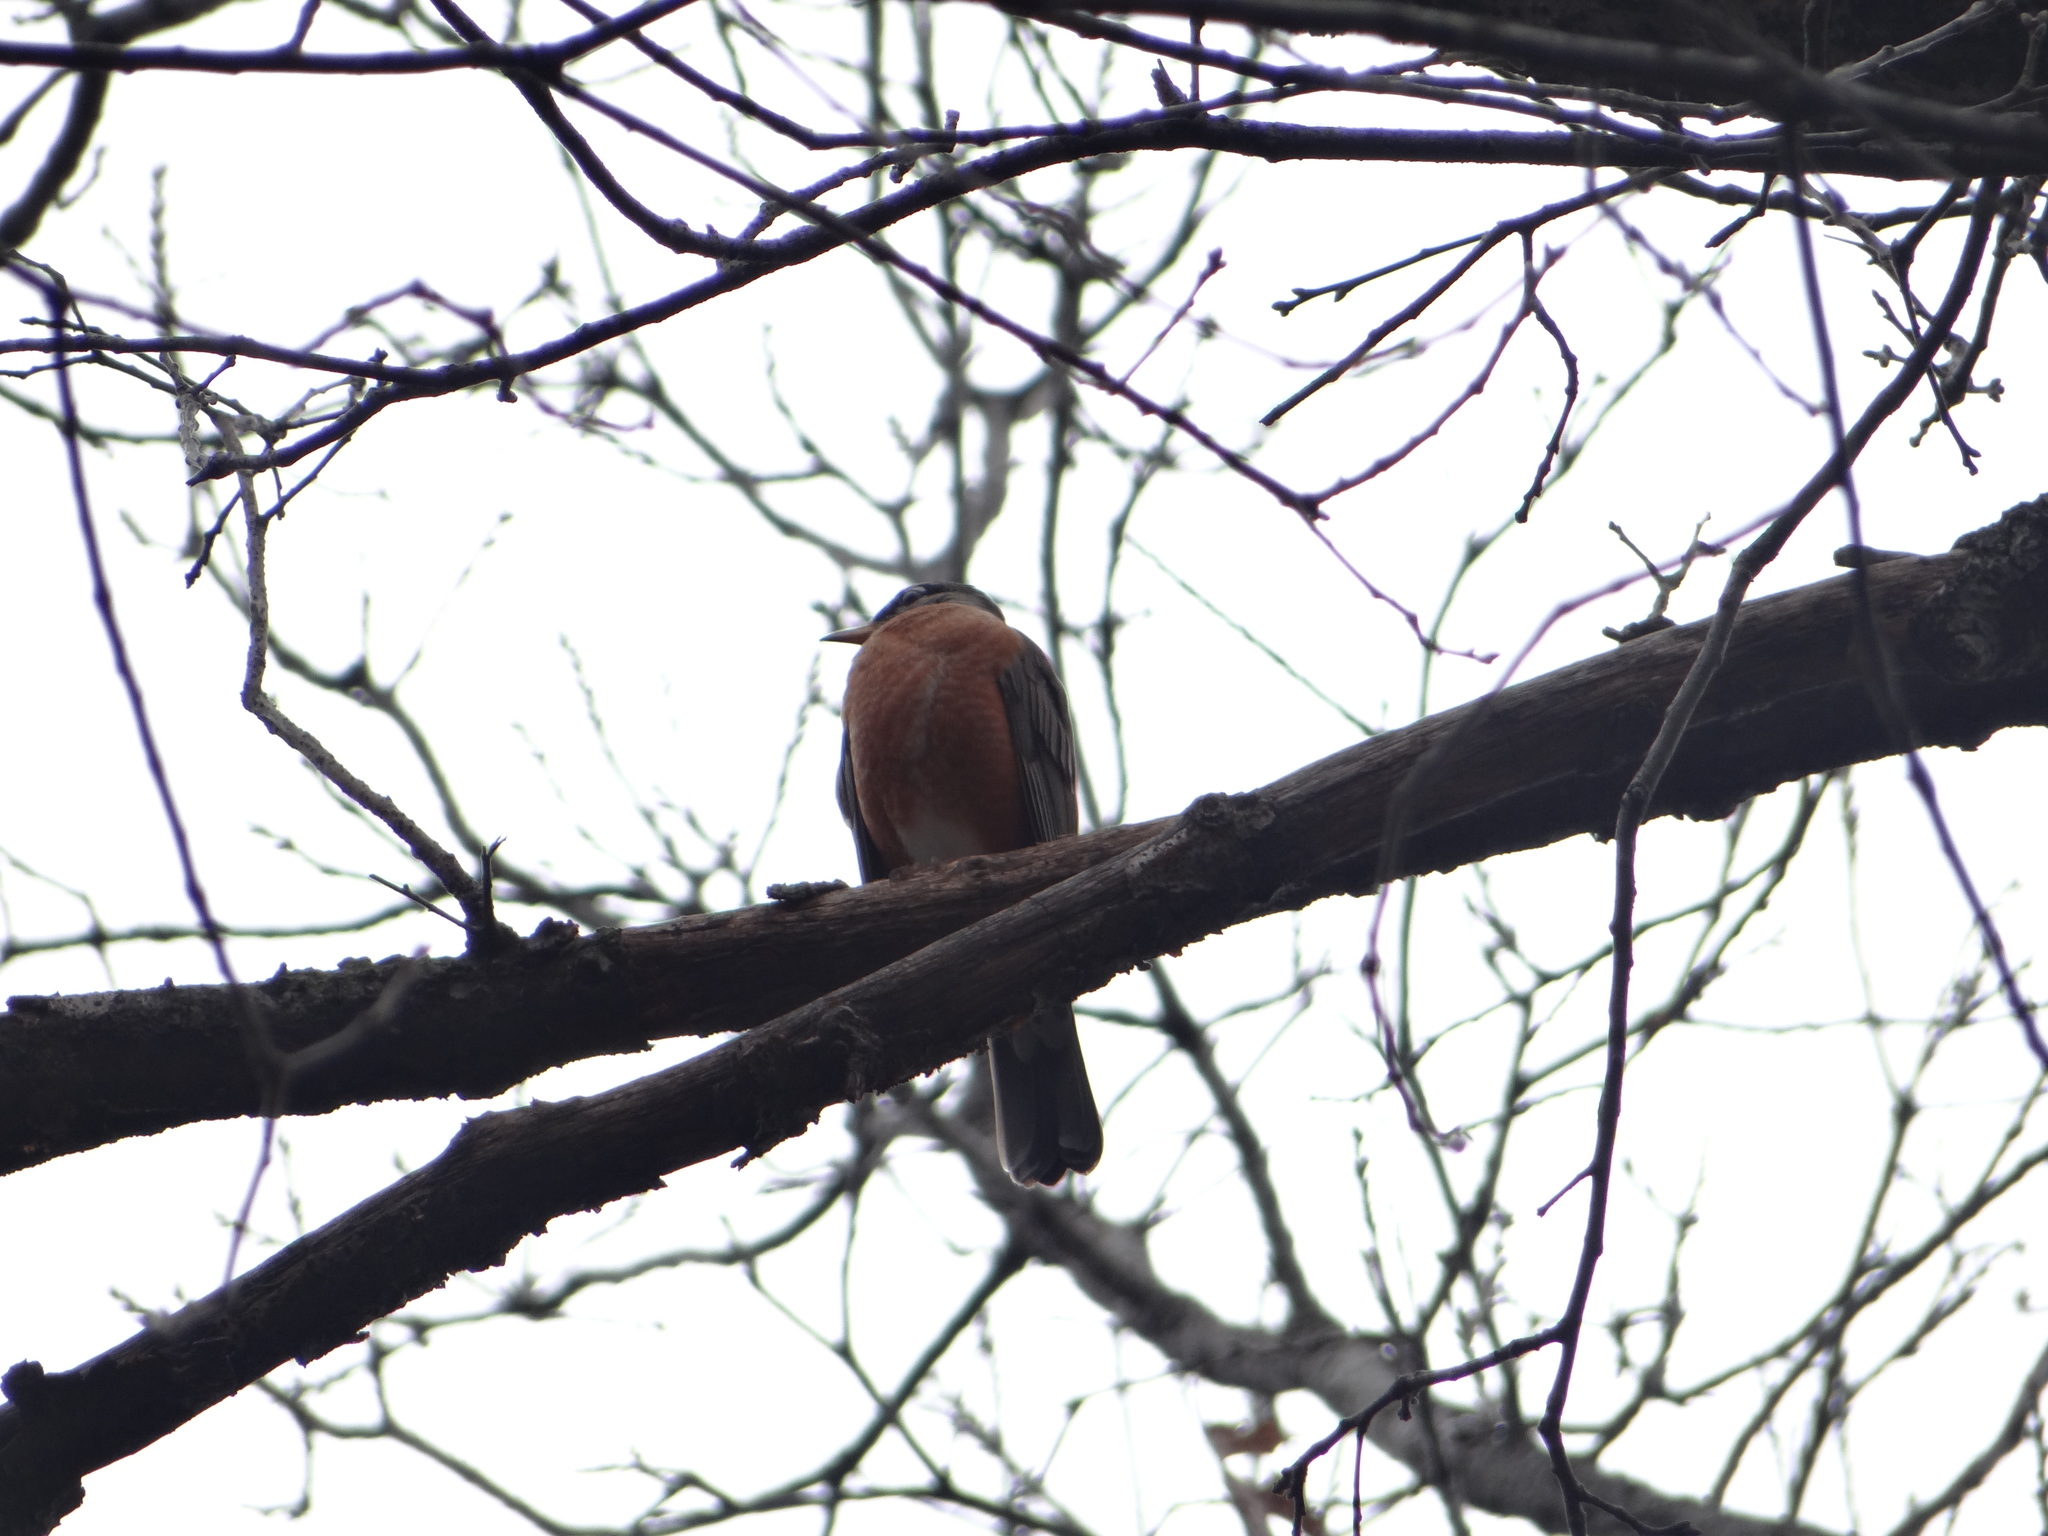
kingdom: Animalia
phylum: Chordata
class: Aves
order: Passeriformes
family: Turdidae
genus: Turdus
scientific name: Turdus migratorius
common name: American robin
